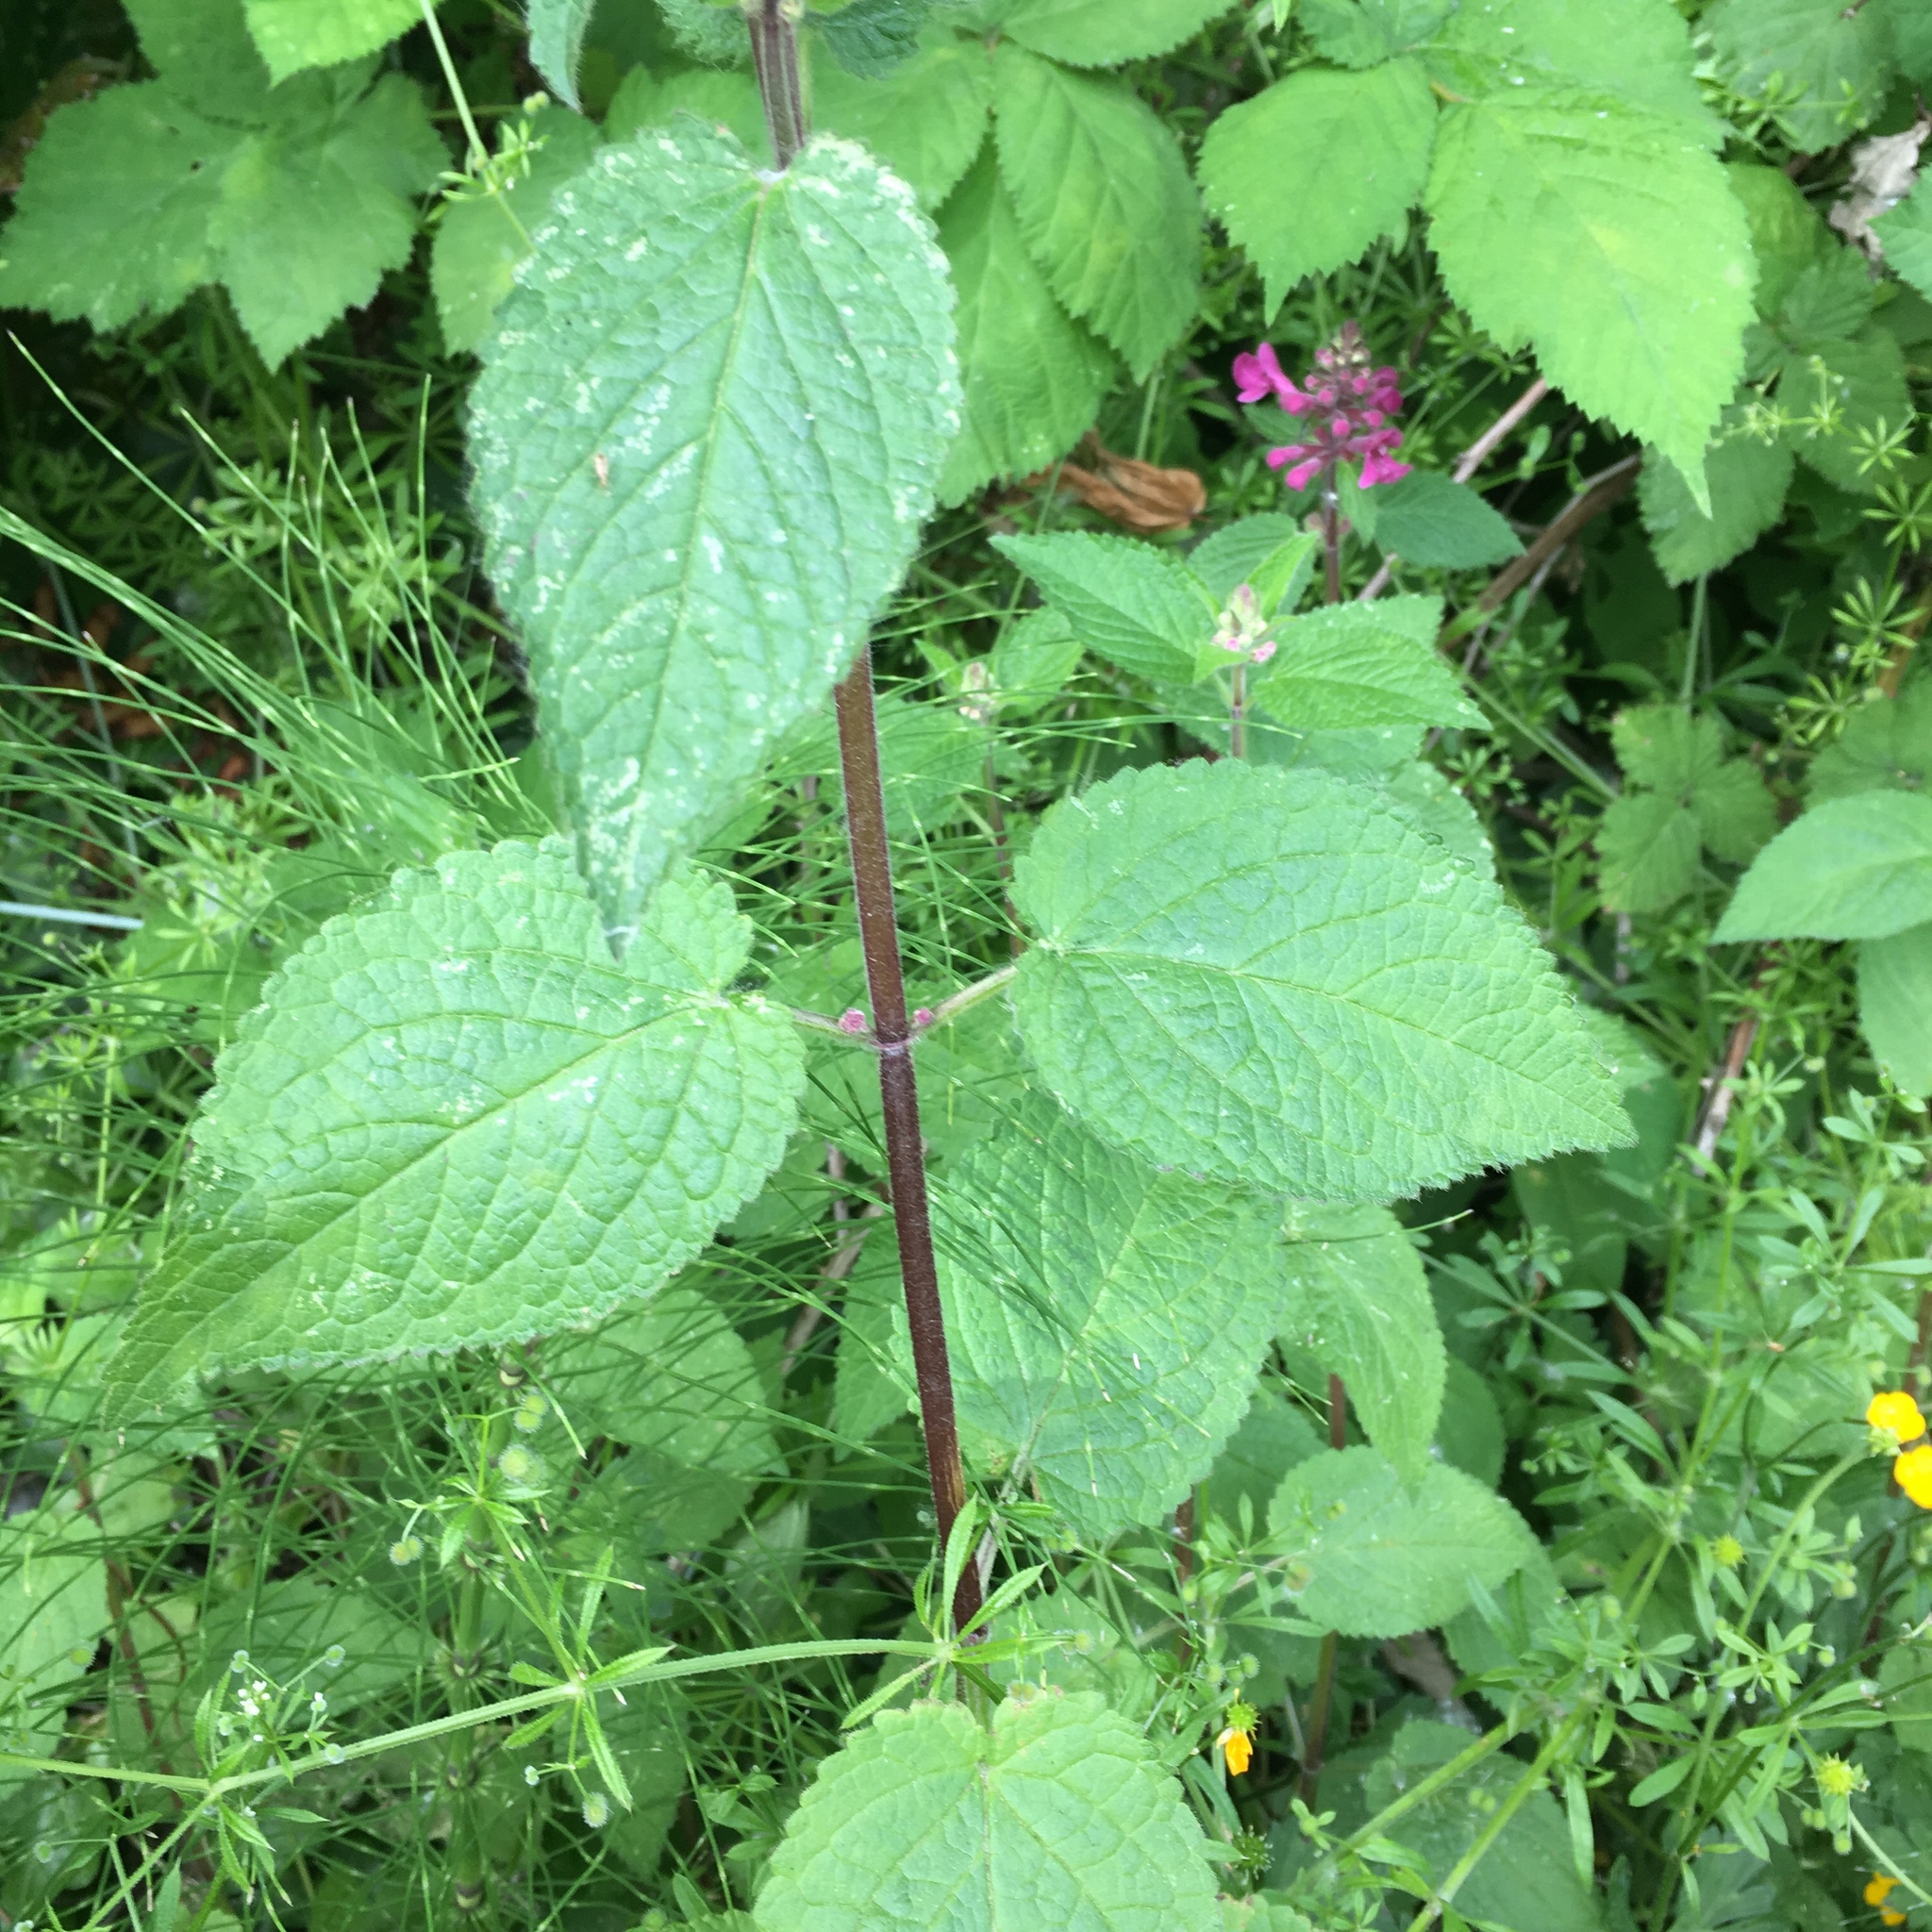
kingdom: Plantae
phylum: Tracheophyta
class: Magnoliopsida
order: Lamiales
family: Lamiaceae
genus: Stachys
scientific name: Stachys chamissonis
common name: Coastal hedge-nettle
